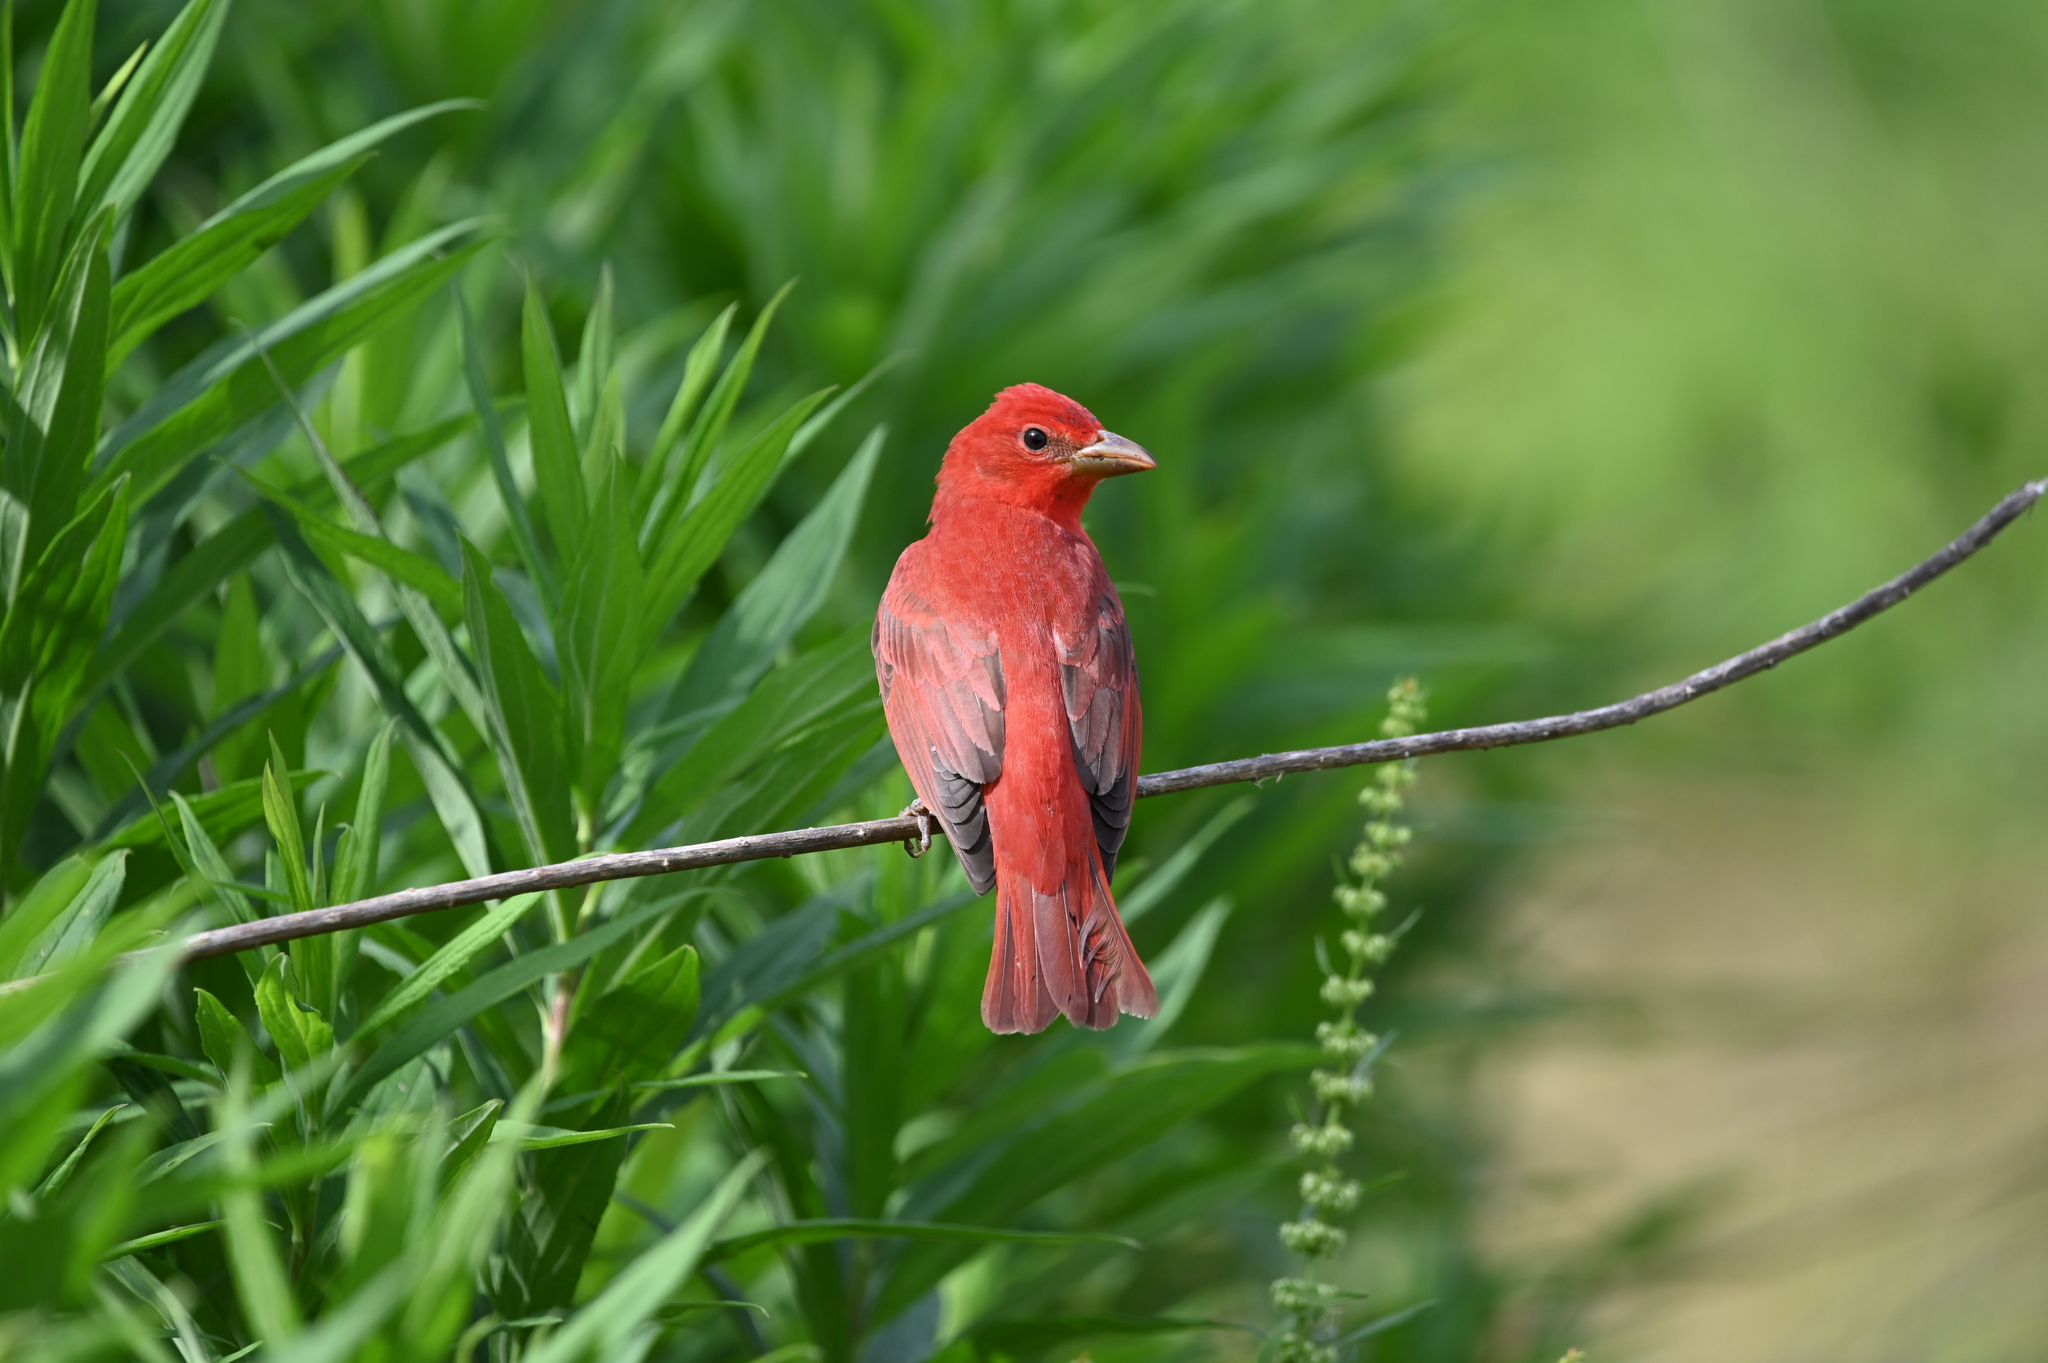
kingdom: Animalia
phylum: Chordata
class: Aves
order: Passeriformes
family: Cardinalidae
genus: Piranga
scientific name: Piranga rubra
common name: Summer tanager
